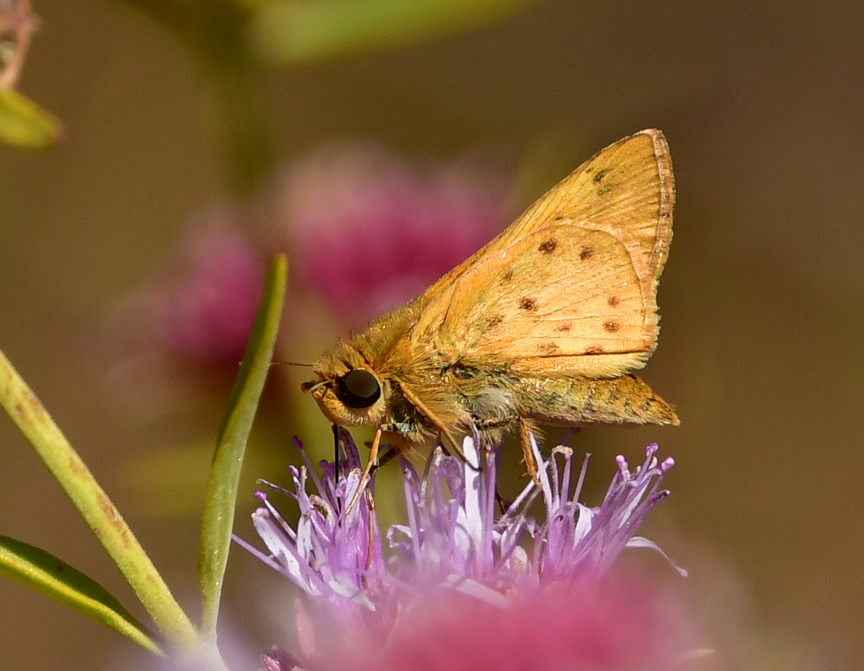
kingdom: Animalia
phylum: Arthropoda
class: Insecta
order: Lepidoptera
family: Hesperiidae
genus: Hylephila
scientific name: Hylephila phyleus
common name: Fiery skipper
